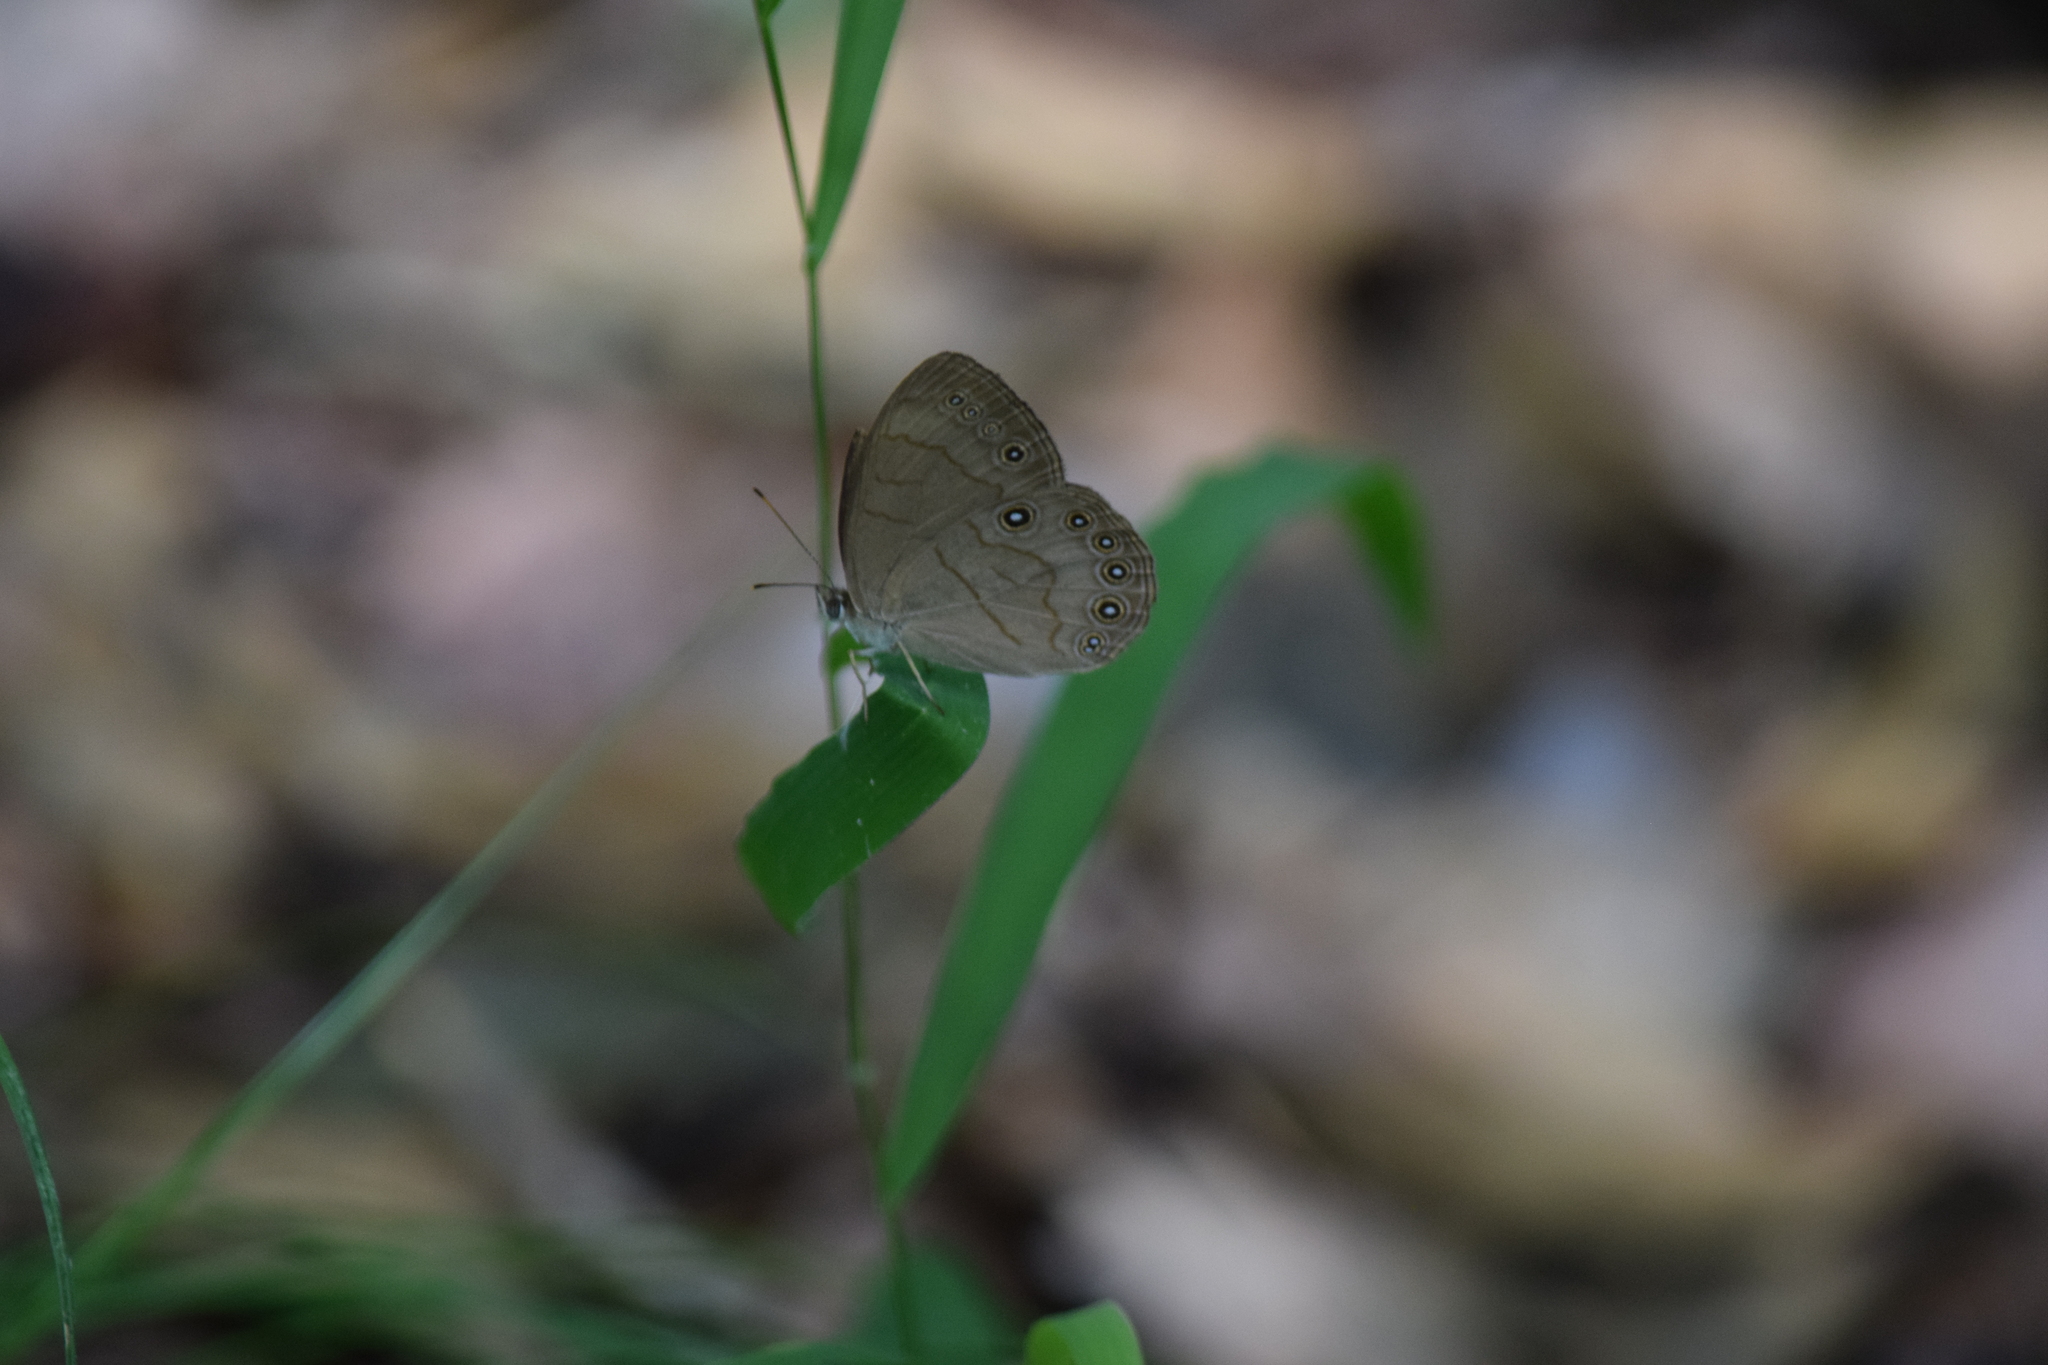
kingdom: Animalia
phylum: Arthropoda
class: Insecta
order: Lepidoptera
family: Nymphalidae
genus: Lethe
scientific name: Lethe eurydice
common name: Eyed brown
